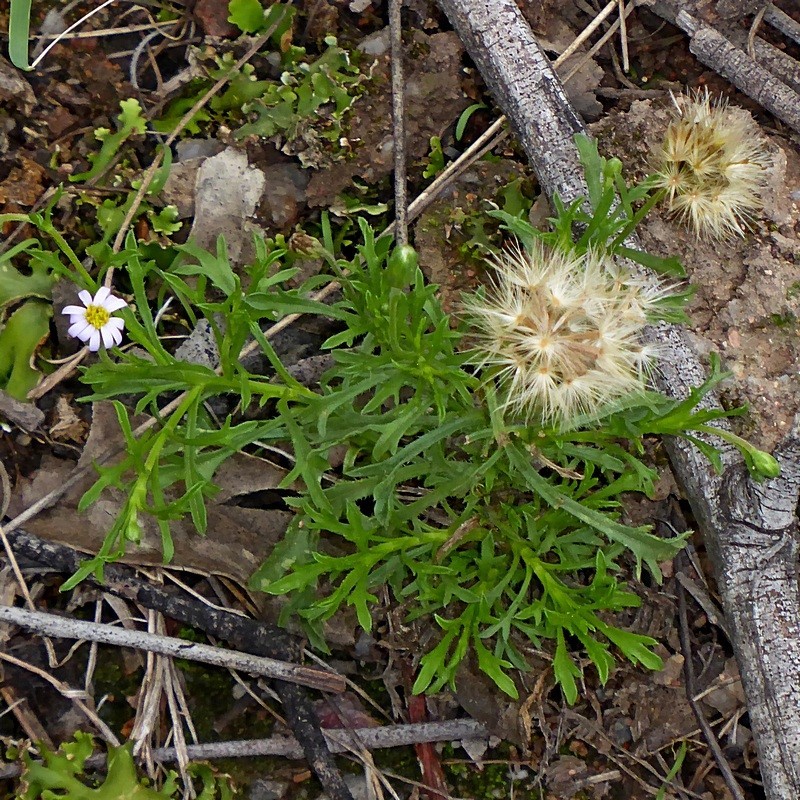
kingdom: Plantae
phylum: Tracheophyta
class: Magnoliopsida
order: Asterales
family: Asteraceae
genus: Vittadinia
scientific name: Vittadinia muelleri
